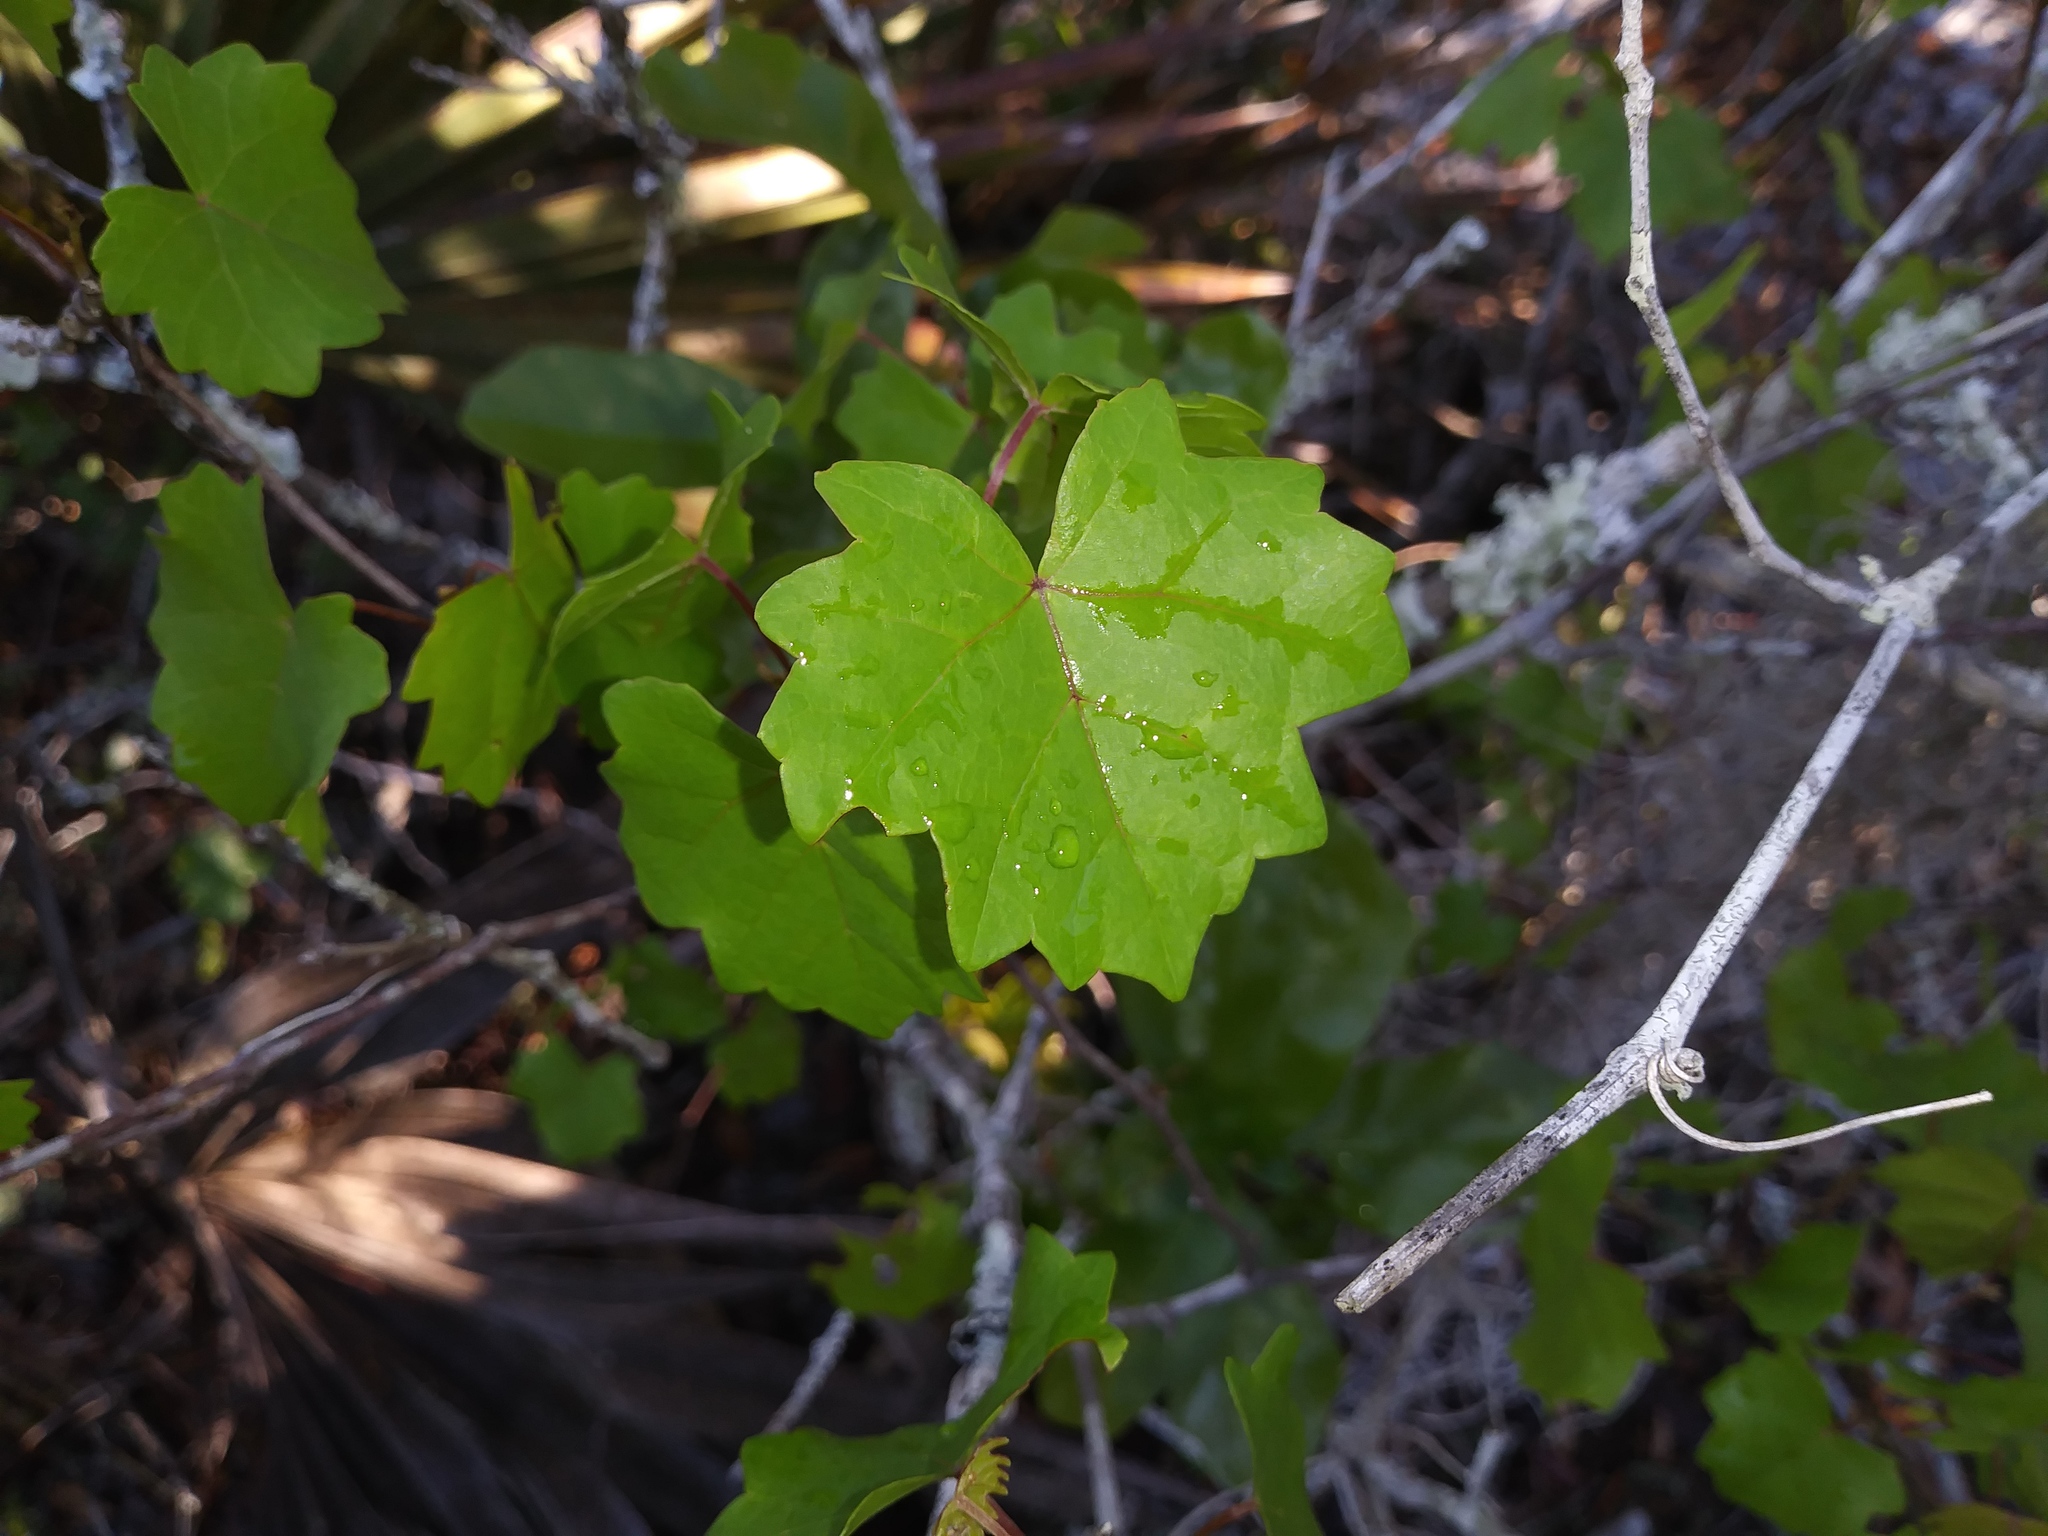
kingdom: Plantae
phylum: Tracheophyta
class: Magnoliopsida
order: Vitales
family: Vitaceae
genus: Vitis
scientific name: Vitis rotundifolia
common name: Muscadine grape
